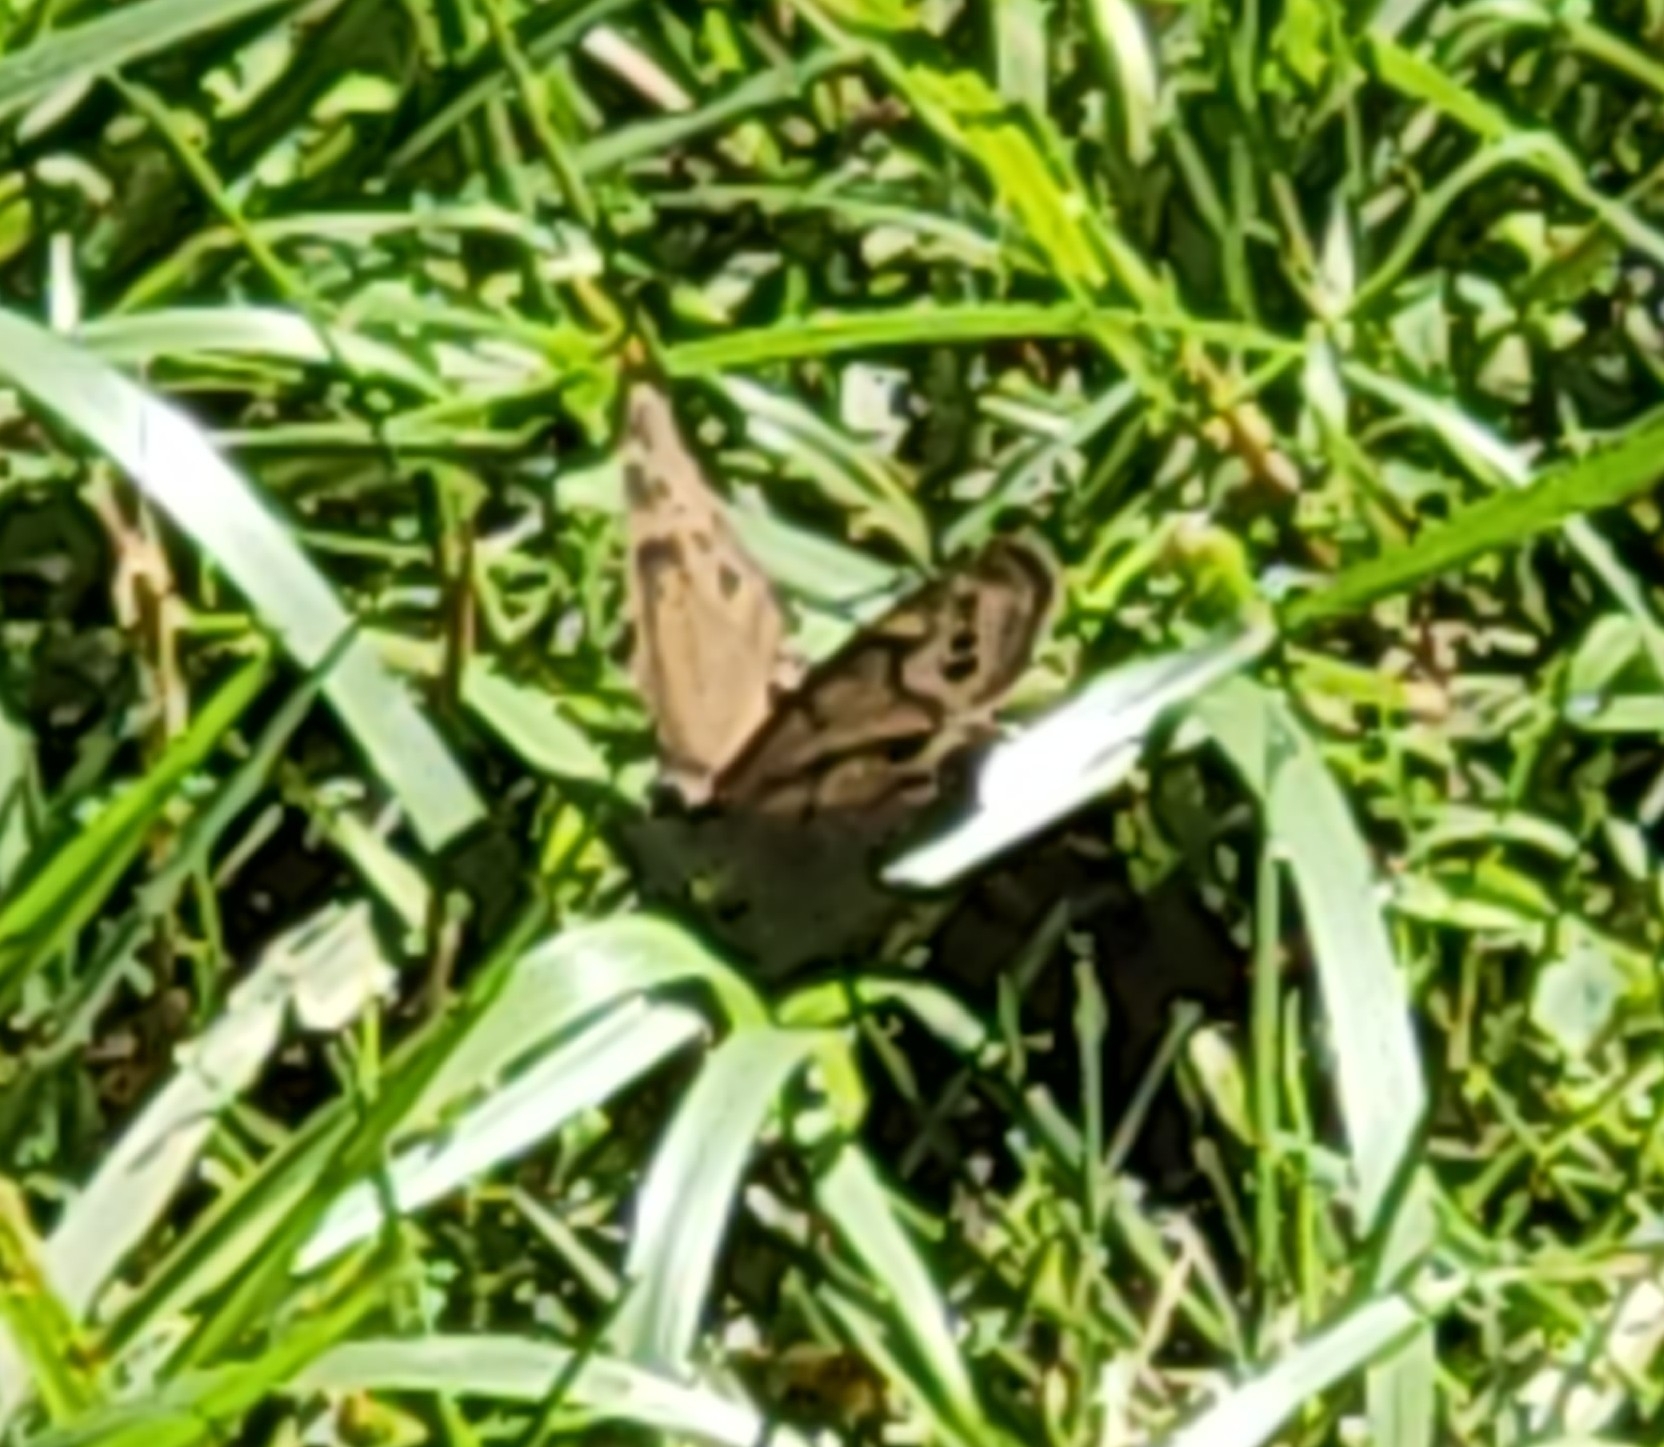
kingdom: Animalia
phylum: Arthropoda
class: Insecta
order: Lepidoptera
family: Nymphalidae
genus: Enodia
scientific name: Enodia
